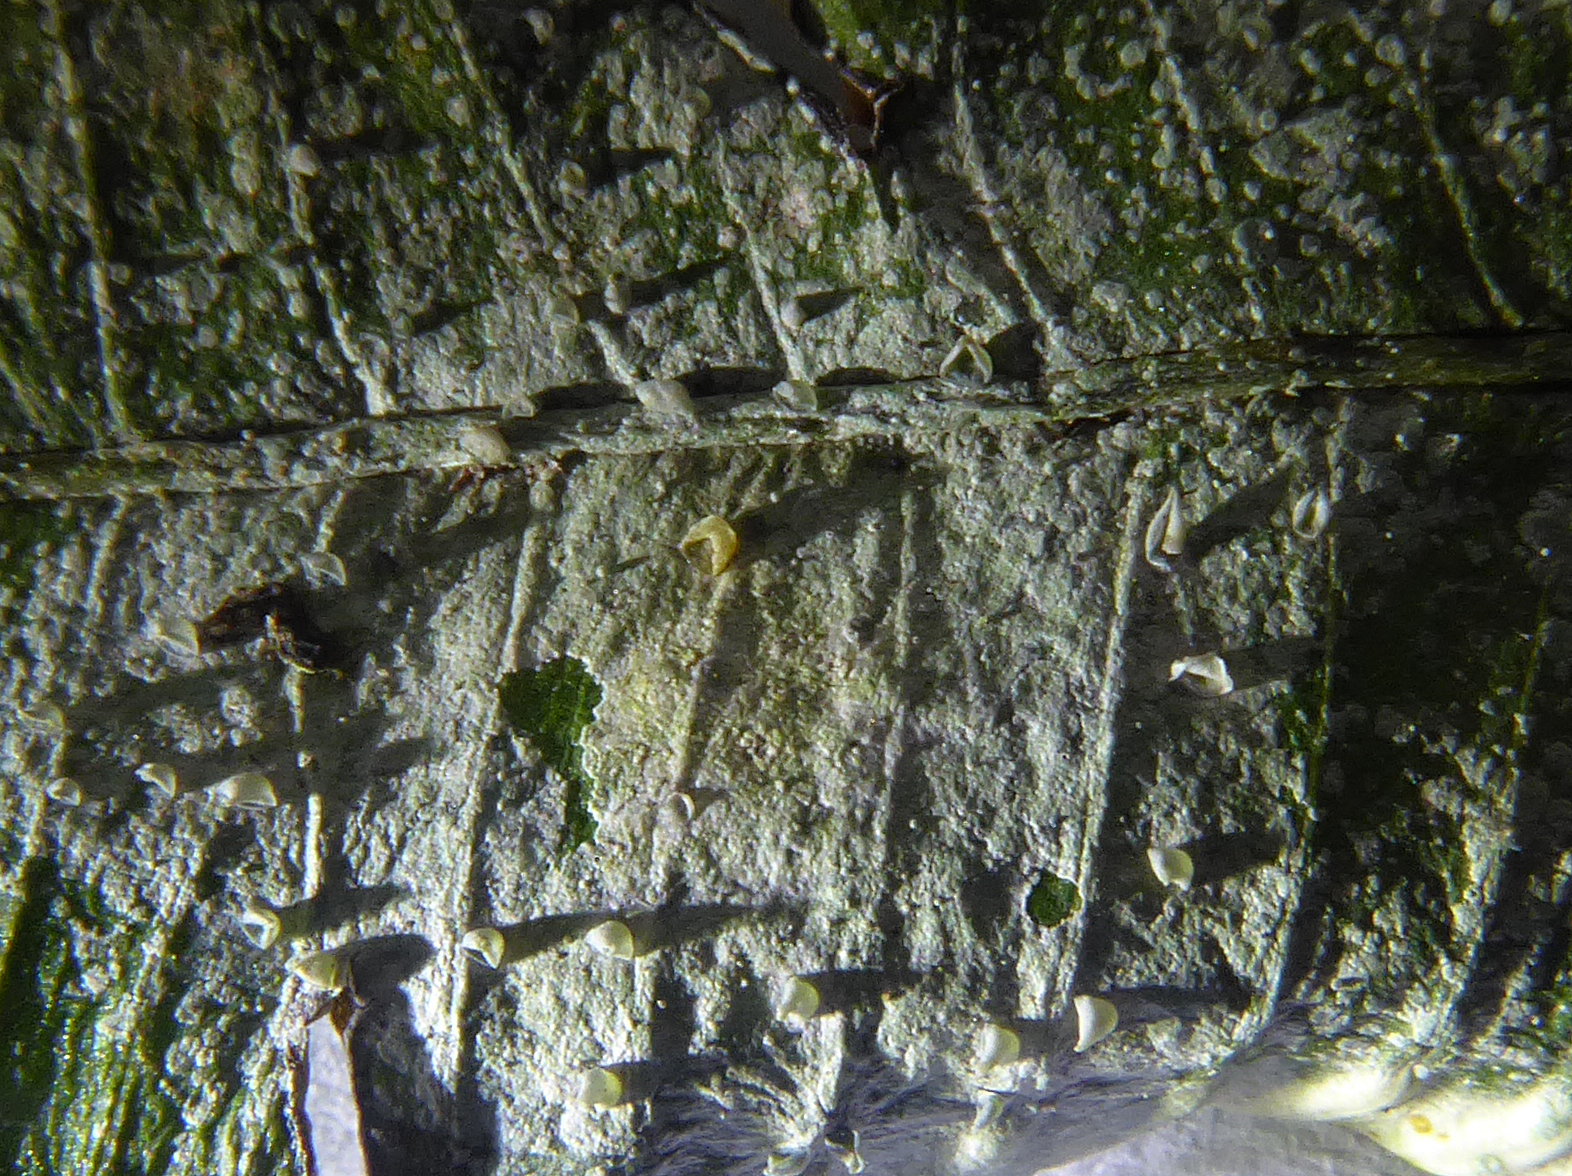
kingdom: Fungi
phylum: Ascomycota
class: Lecanoromycetes
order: Lecanorales
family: Byssolomataceae
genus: Calopadia
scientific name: Calopadia subcoerulescens
